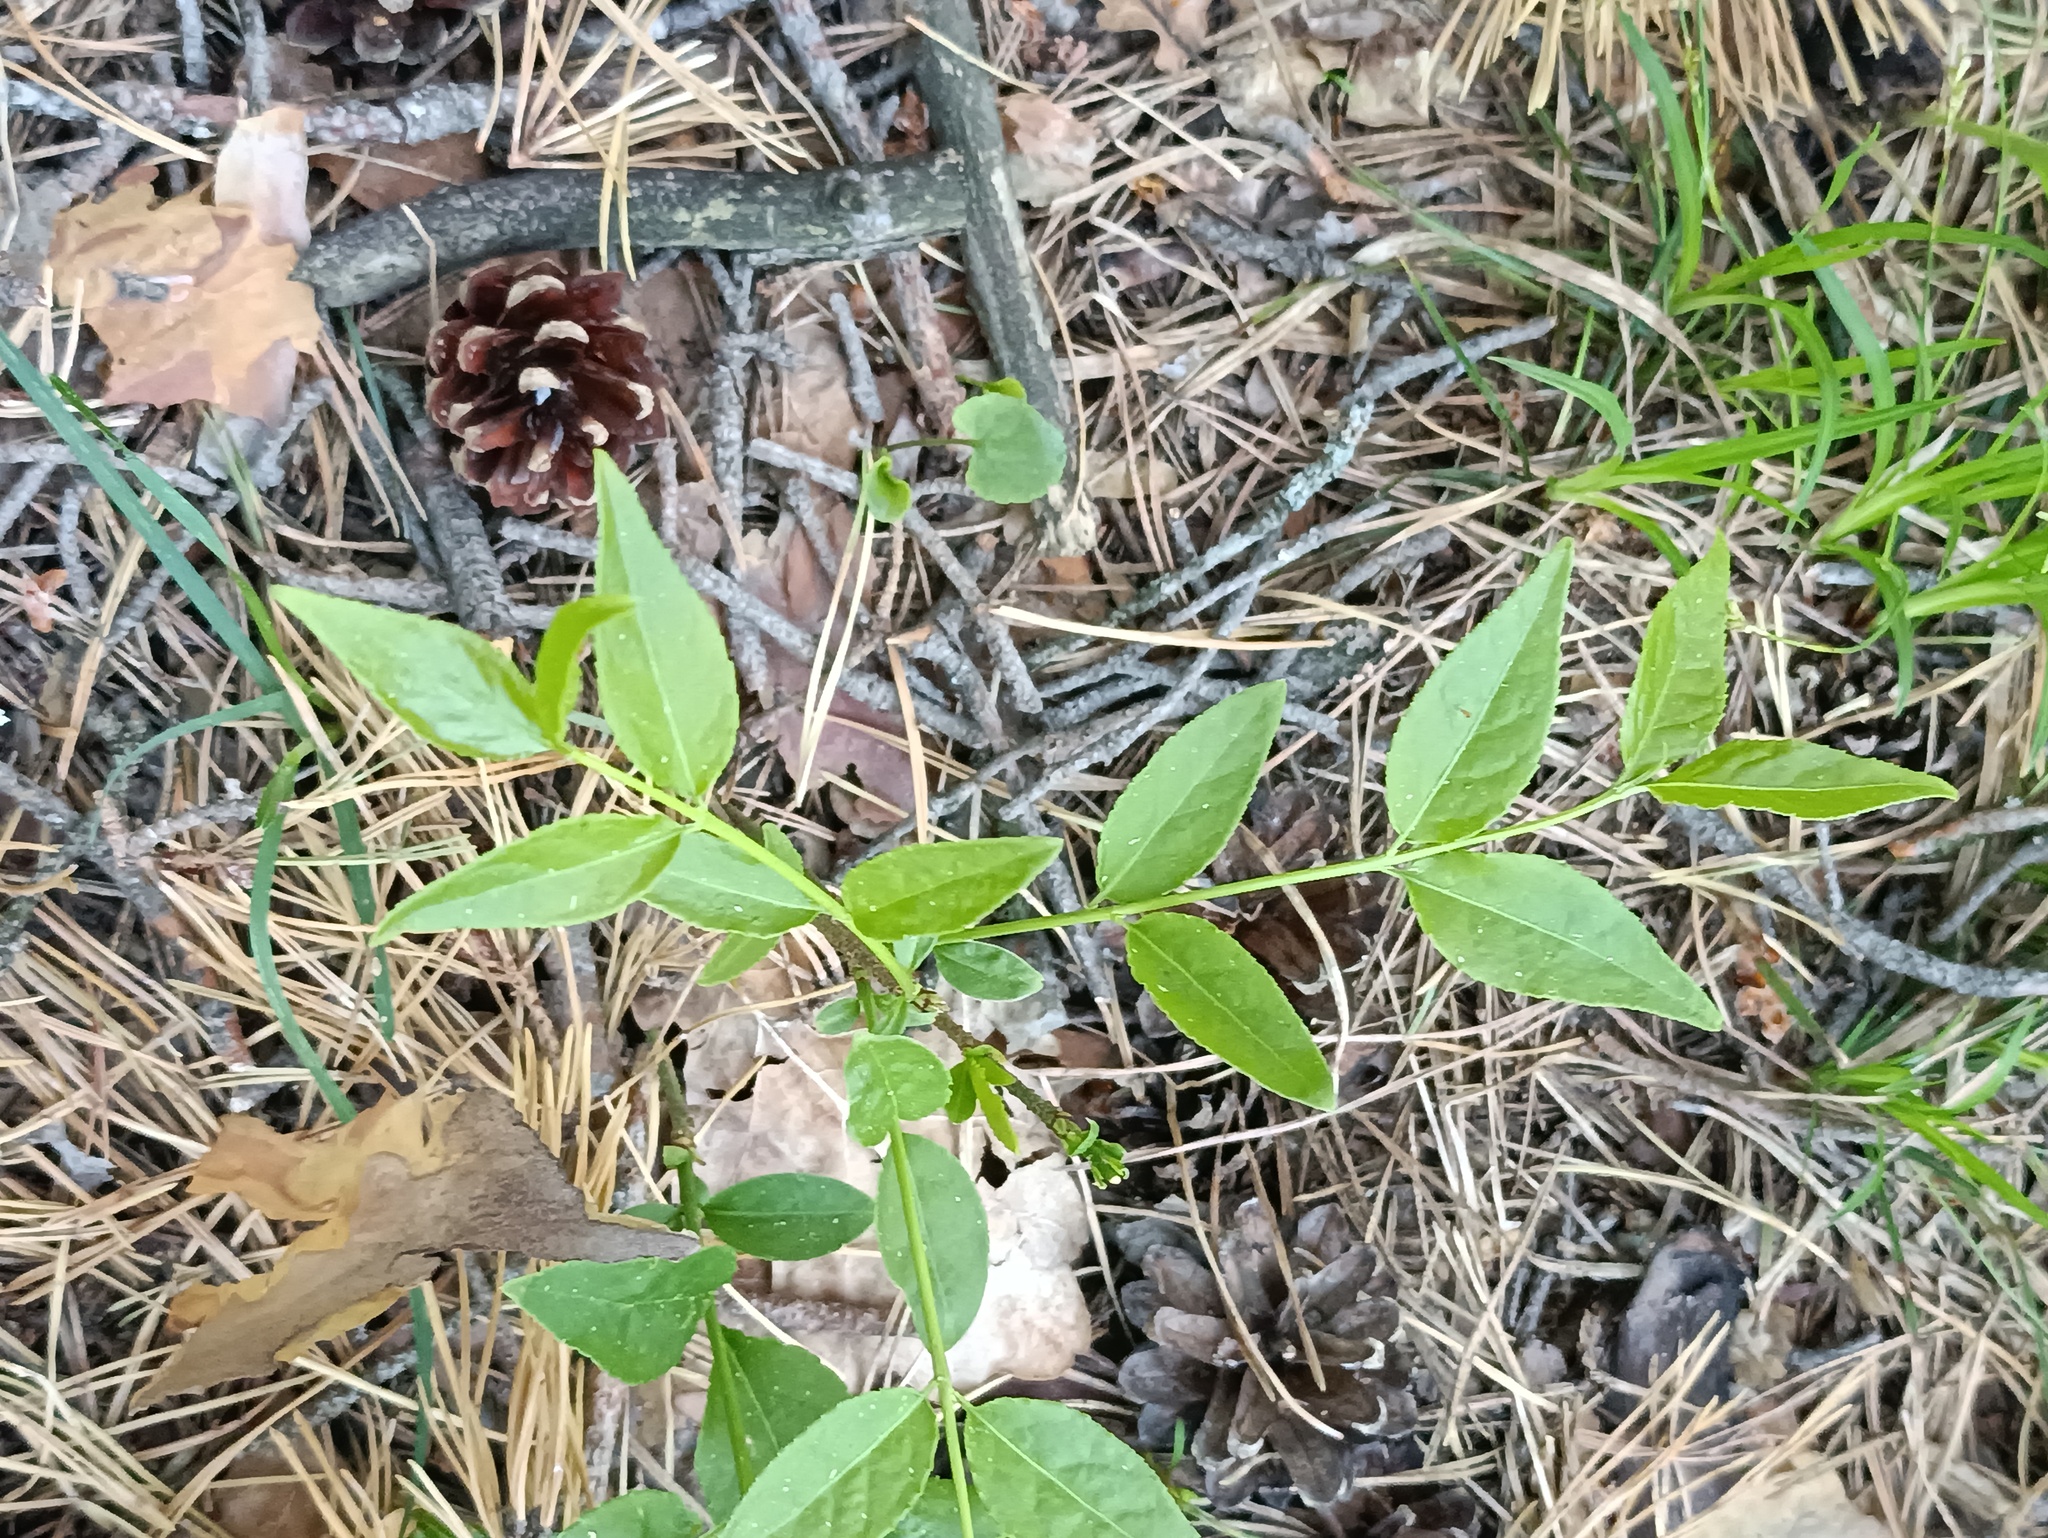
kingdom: Plantae
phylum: Tracheophyta
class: Magnoliopsida
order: Celastrales
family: Celastraceae
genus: Euonymus
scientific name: Euonymus verrucosus
